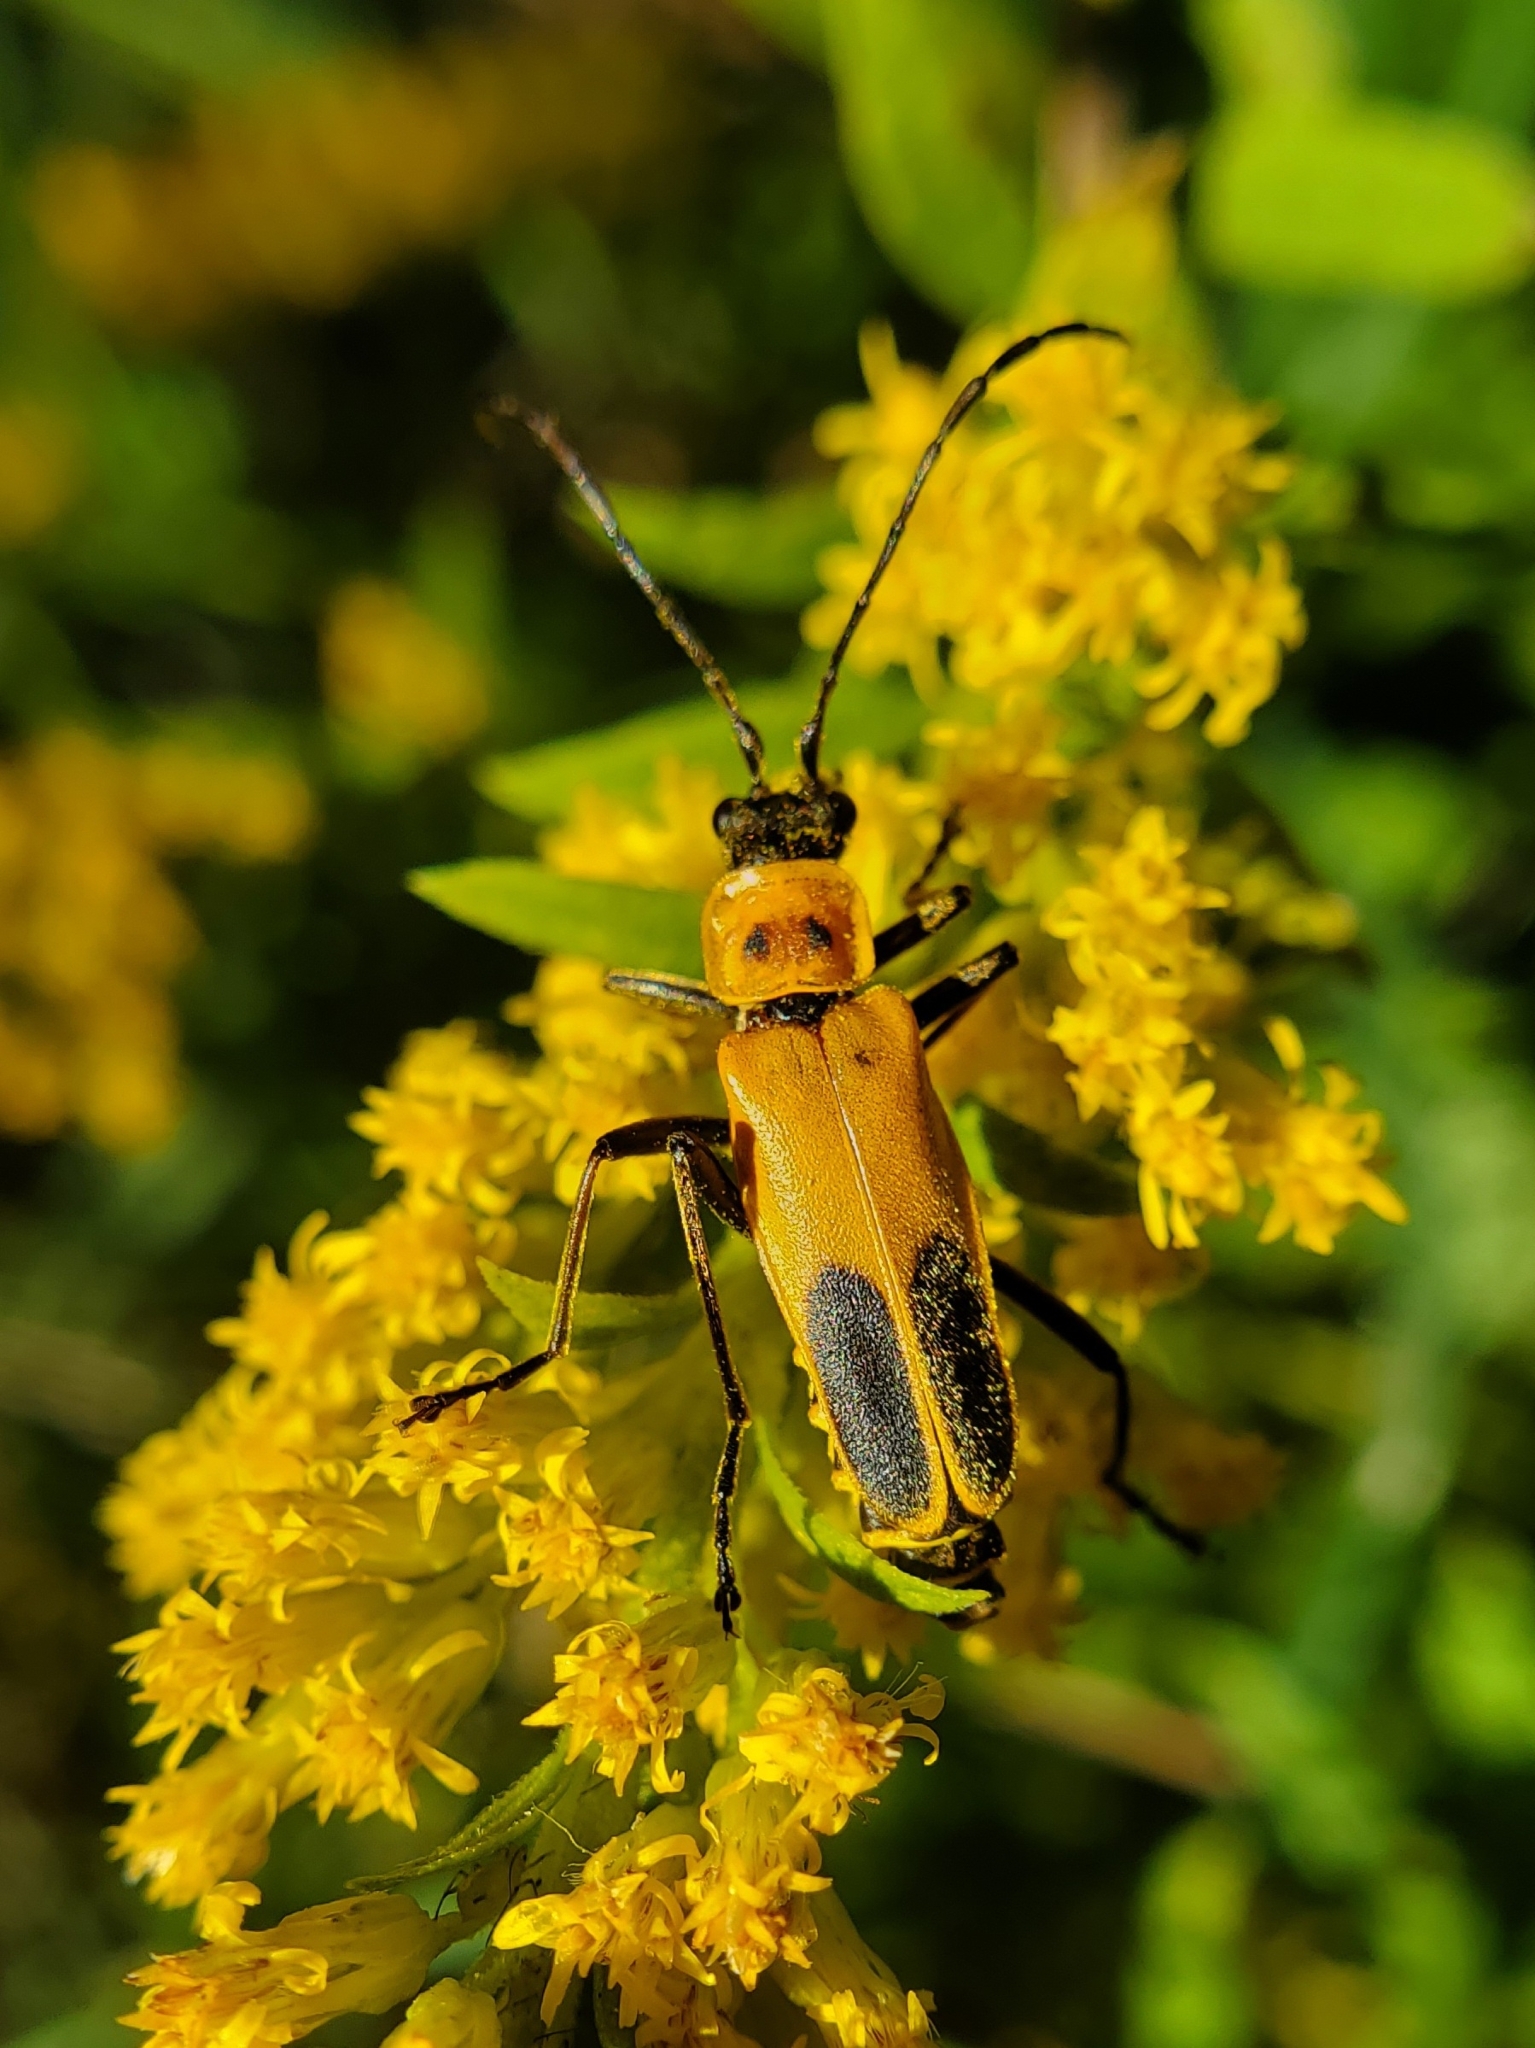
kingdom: Animalia
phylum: Arthropoda
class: Insecta
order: Coleoptera
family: Cantharidae
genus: Chauliognathus
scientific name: Chauliognathus pensylvanicus
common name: Goldenrod soldier beetle
